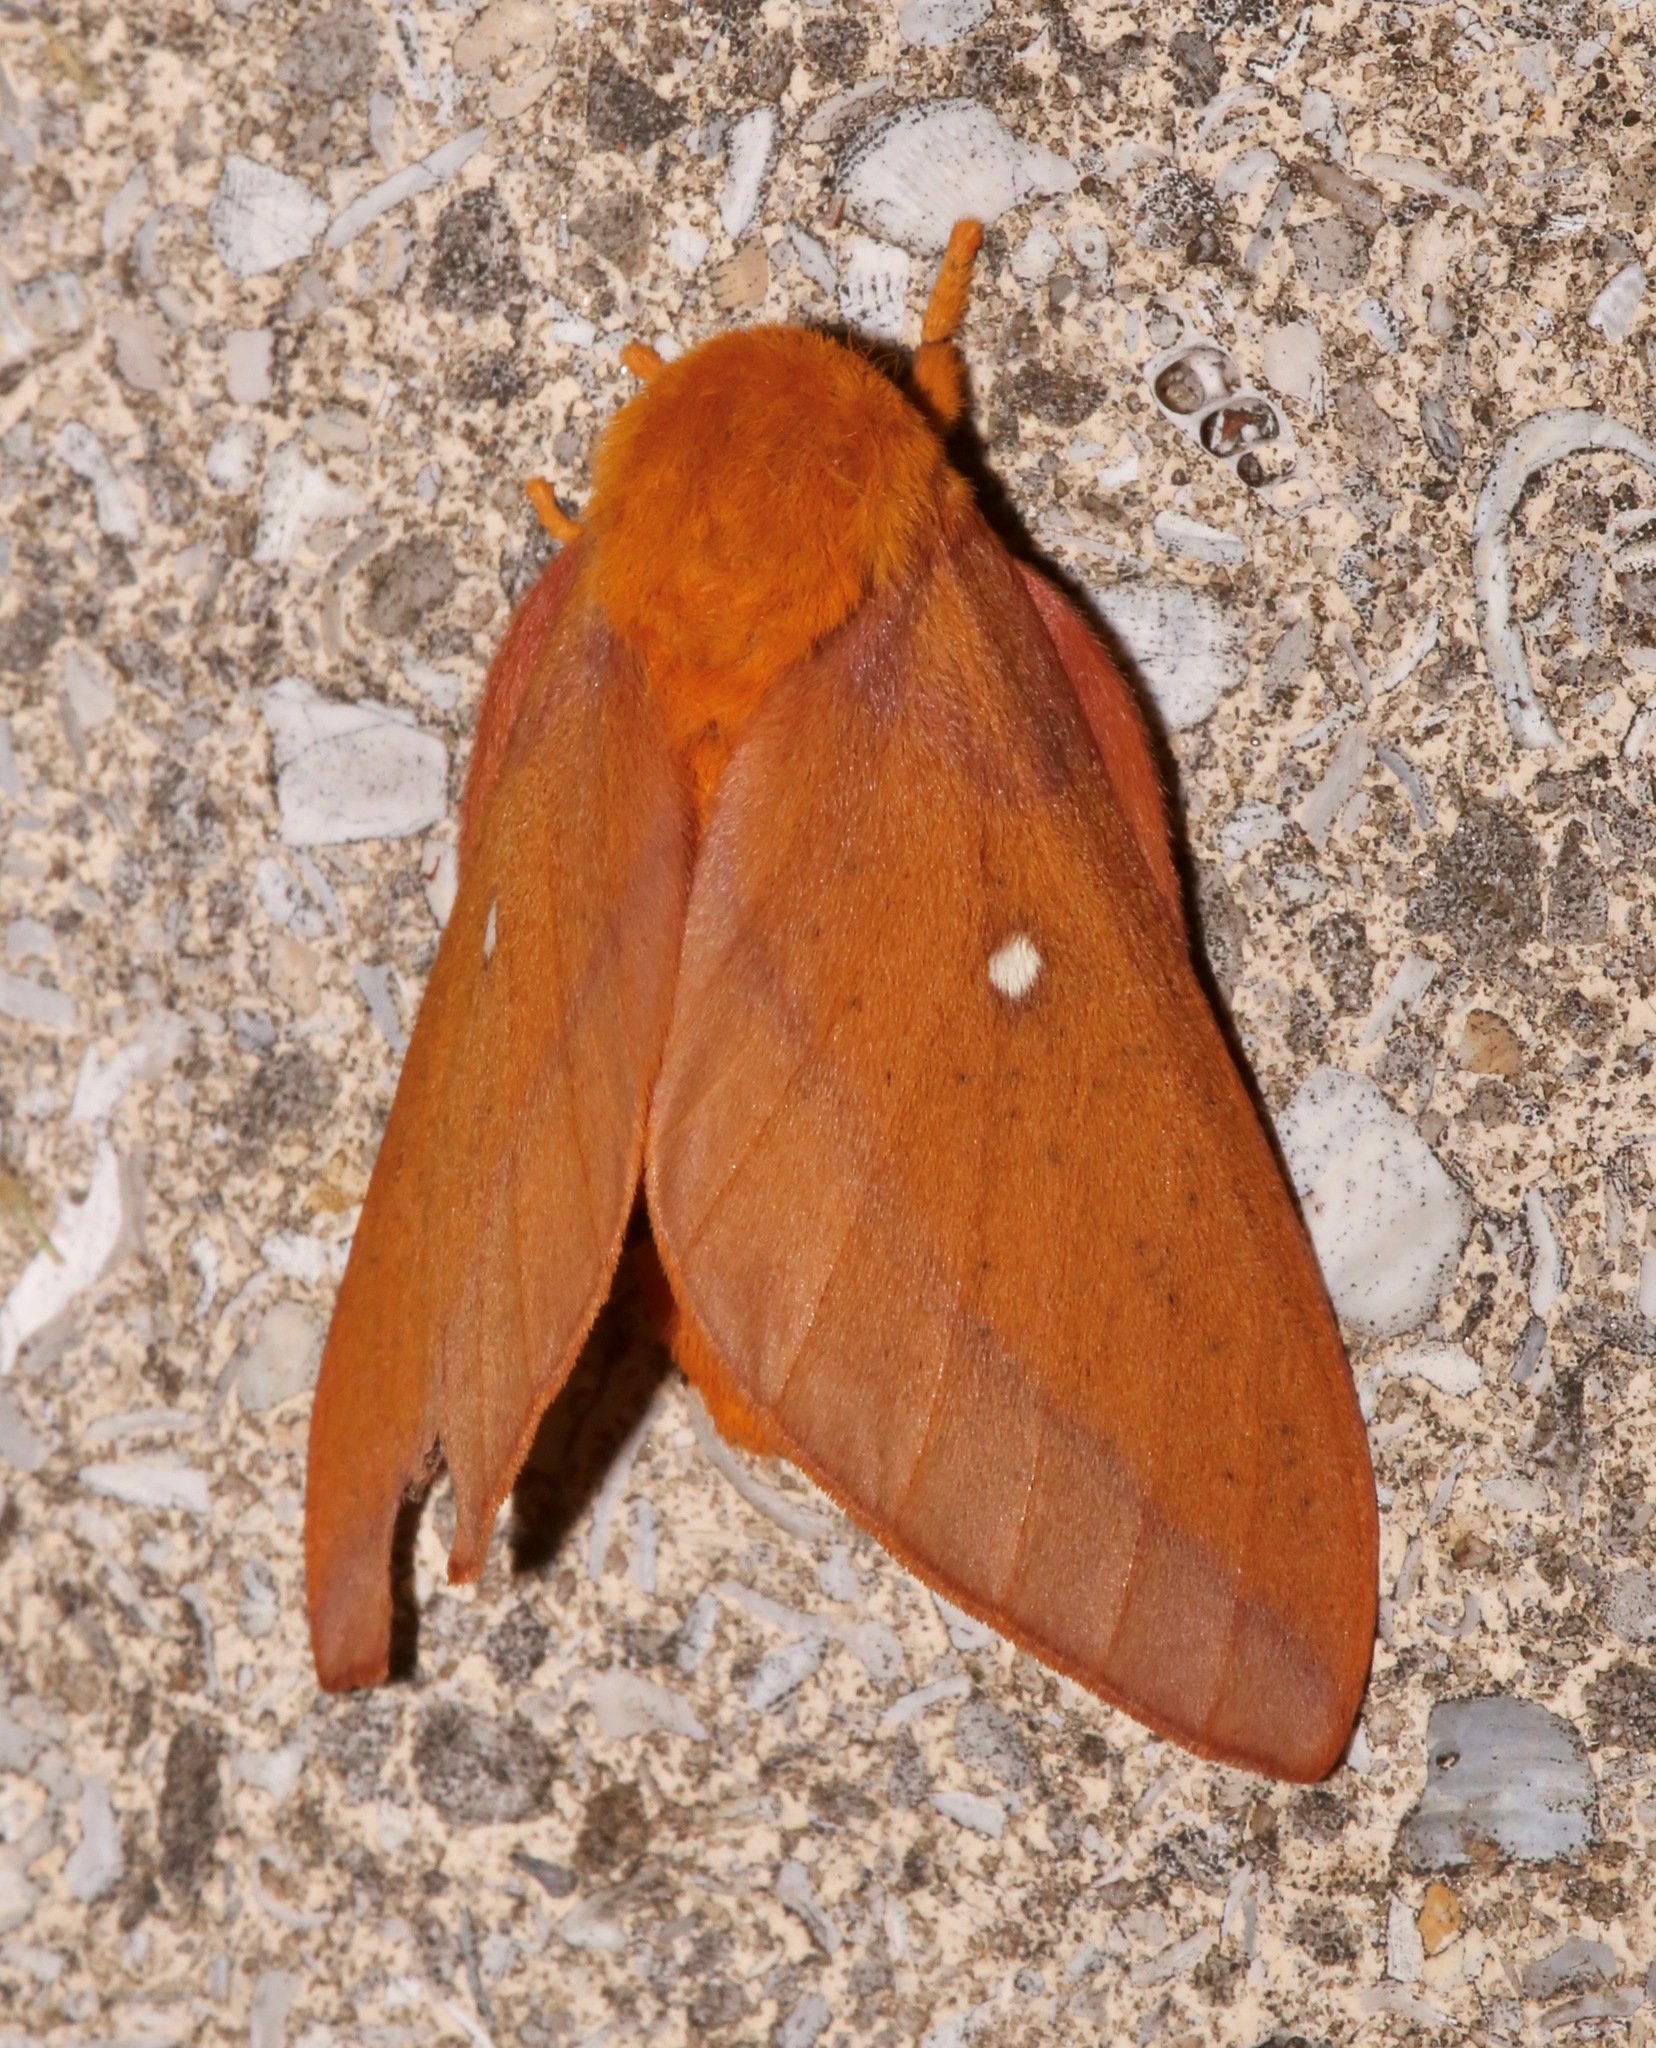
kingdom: Animalia
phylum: Arthropoda
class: Insecta
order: Lepidoptera
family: Saturniidae
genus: Anisota
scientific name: Anisota virginiensis
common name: Pink striped oakworm moth
